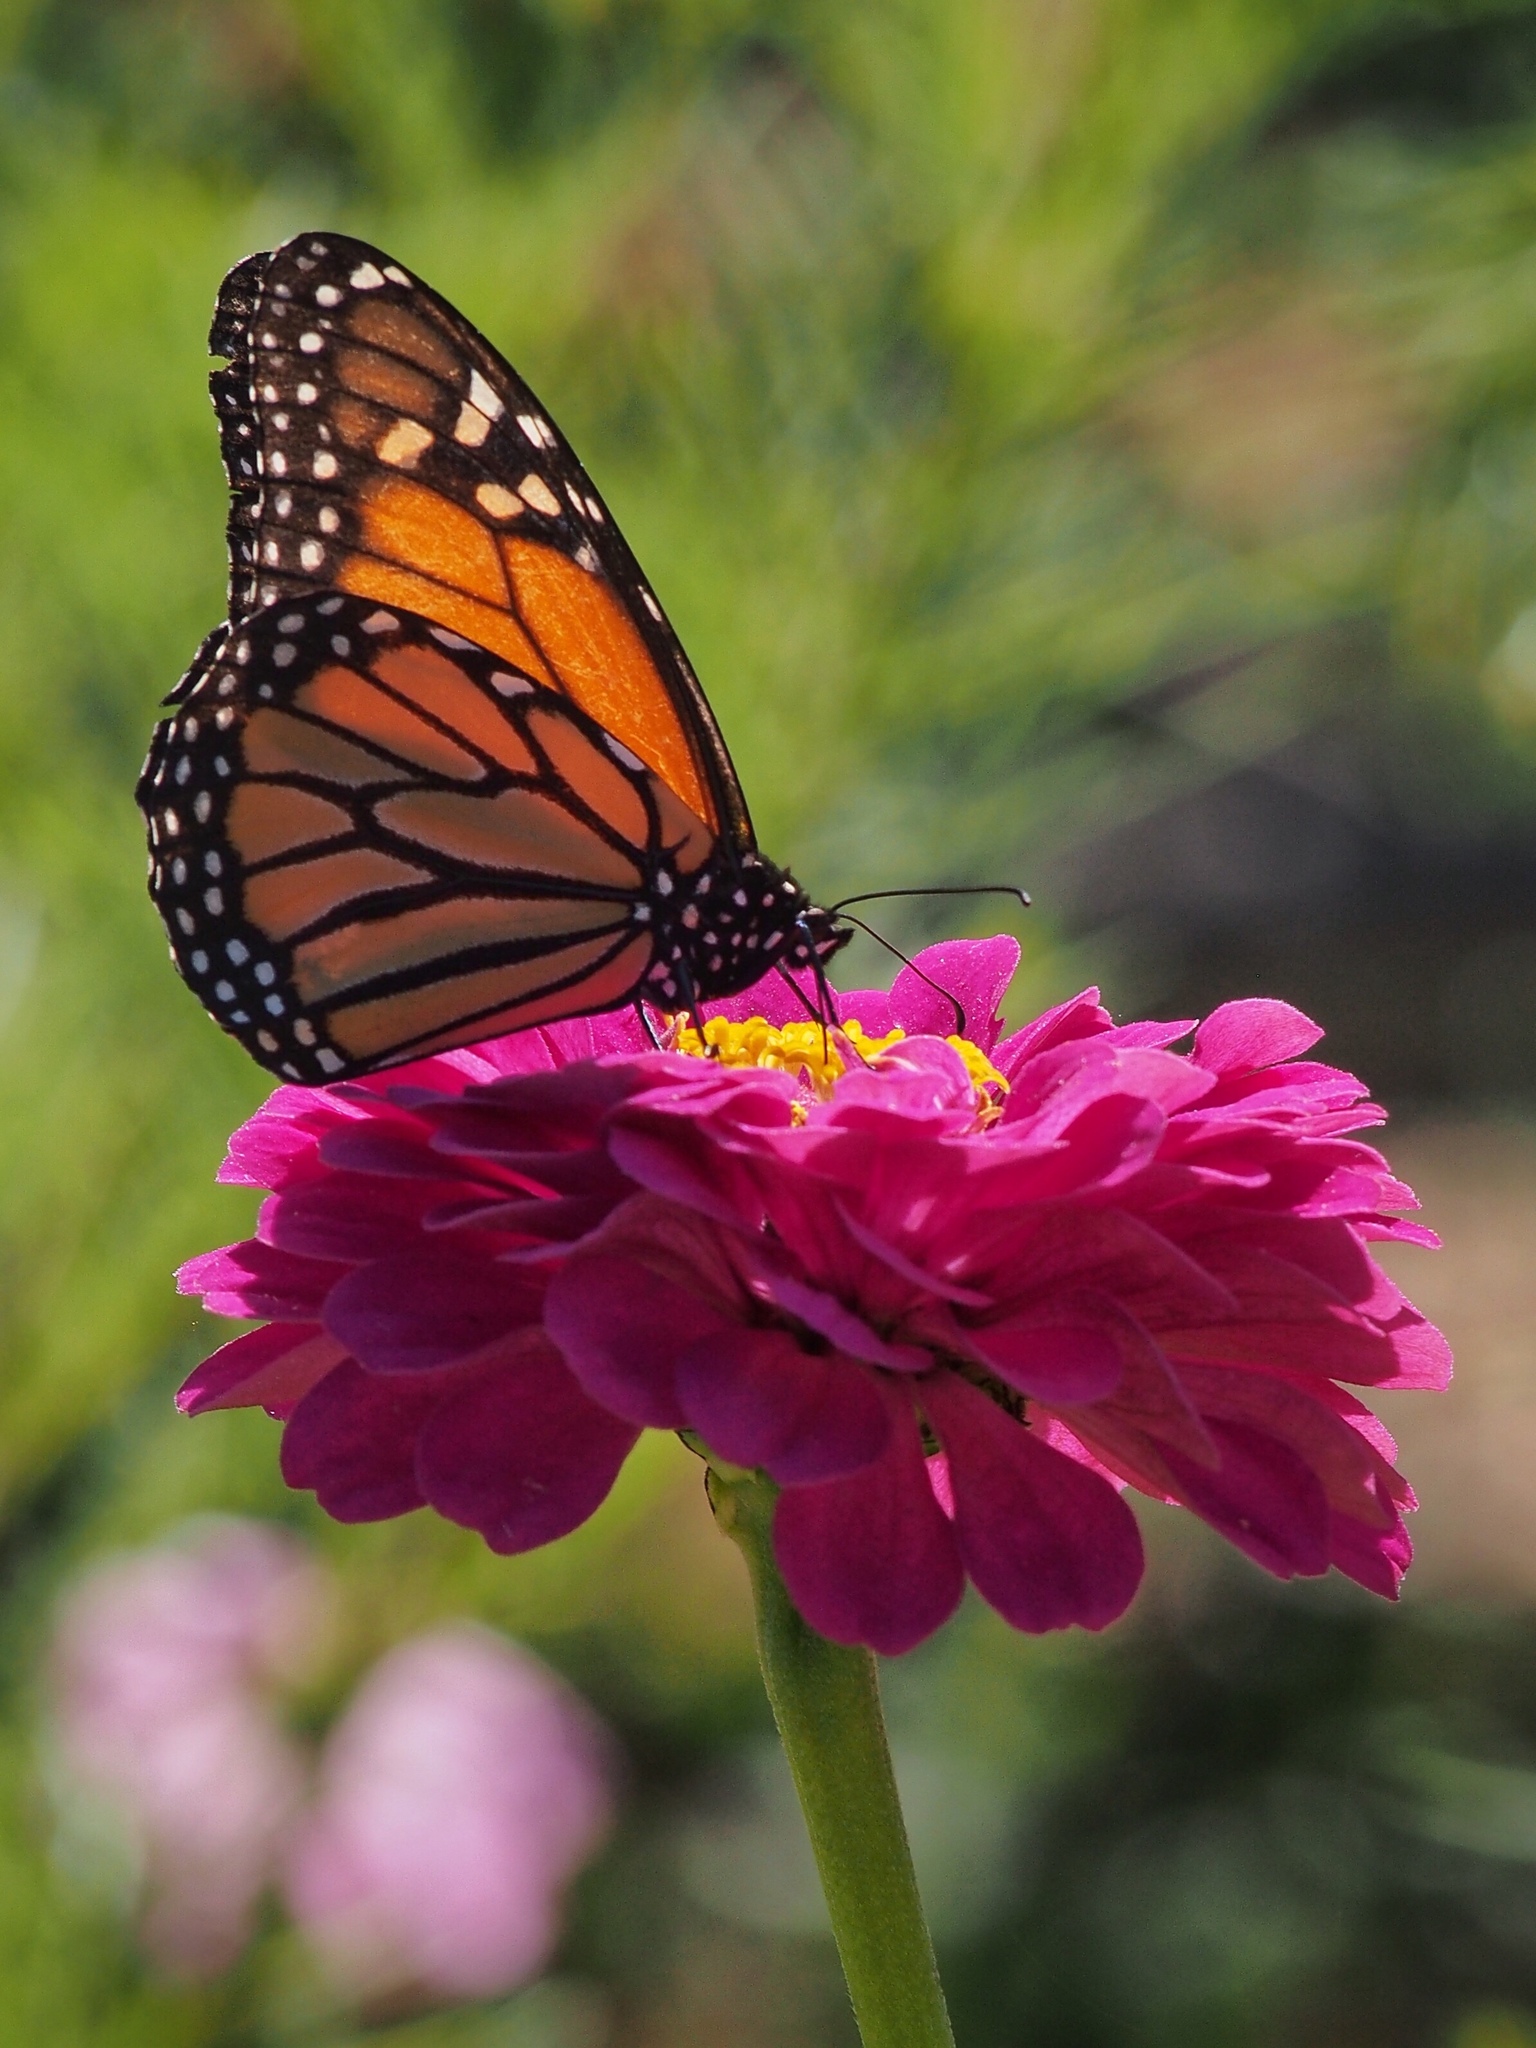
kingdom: Animalia
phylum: Arthropoda
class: Insecta
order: Lepidoptera
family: Nymphalidae
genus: Danaus
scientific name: Danaus plexippus
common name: Monarch
